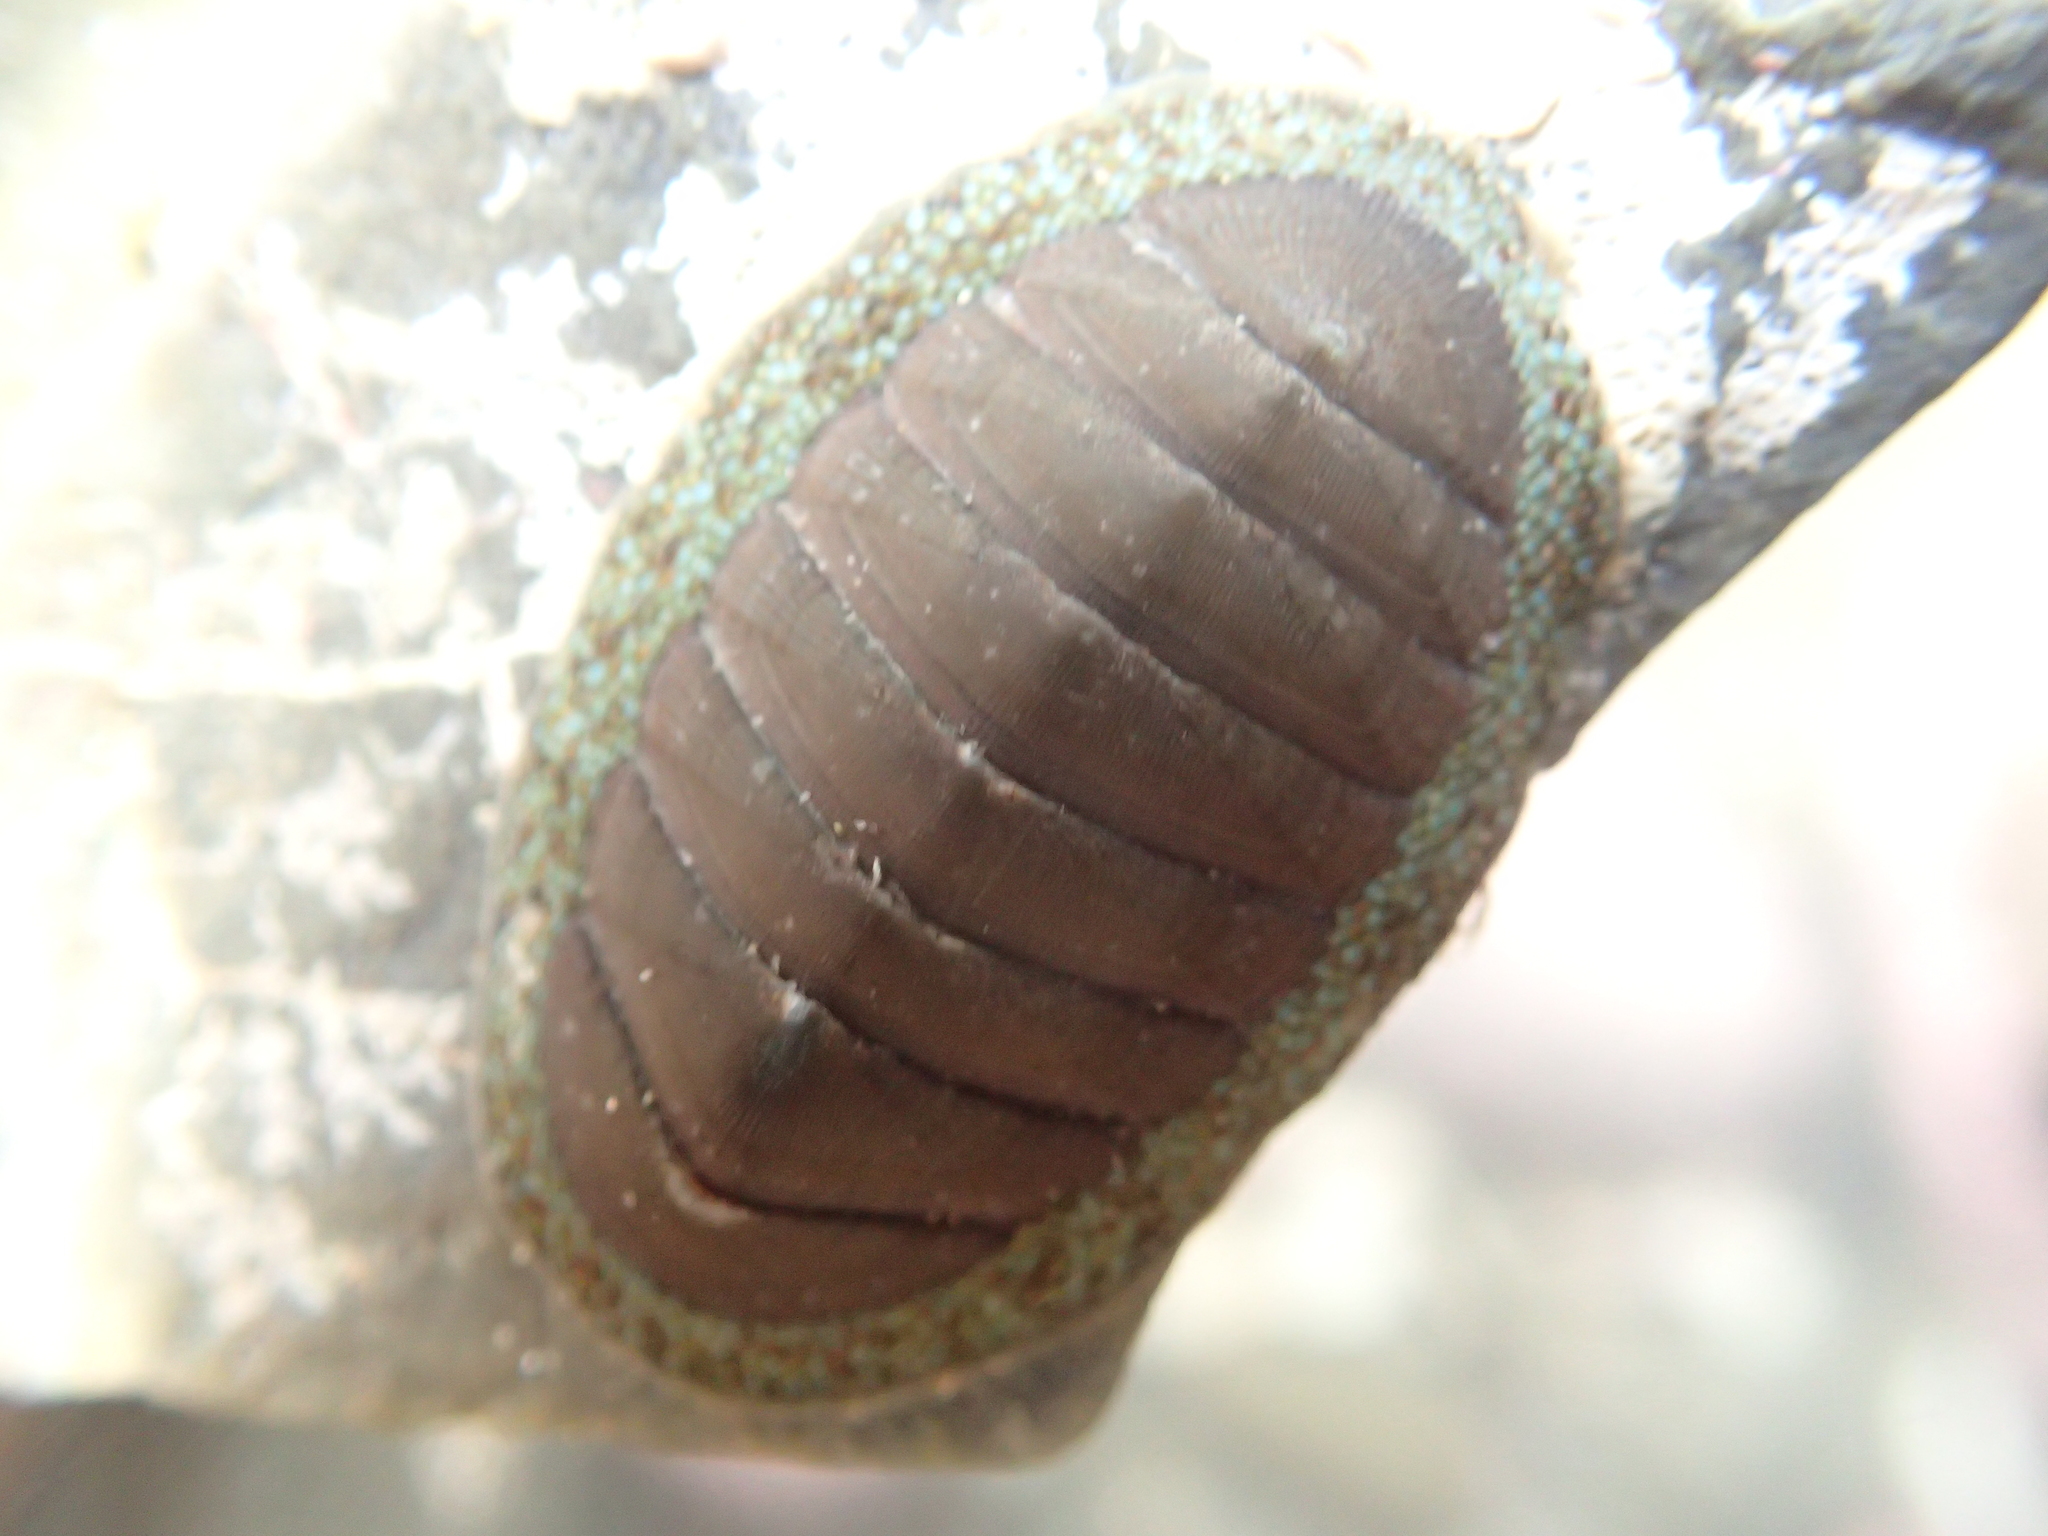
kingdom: Animalia
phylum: Mollusca
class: Polyplacophora
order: Chitonida
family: Chitonidae
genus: Chiton
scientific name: Chiton glaucus
